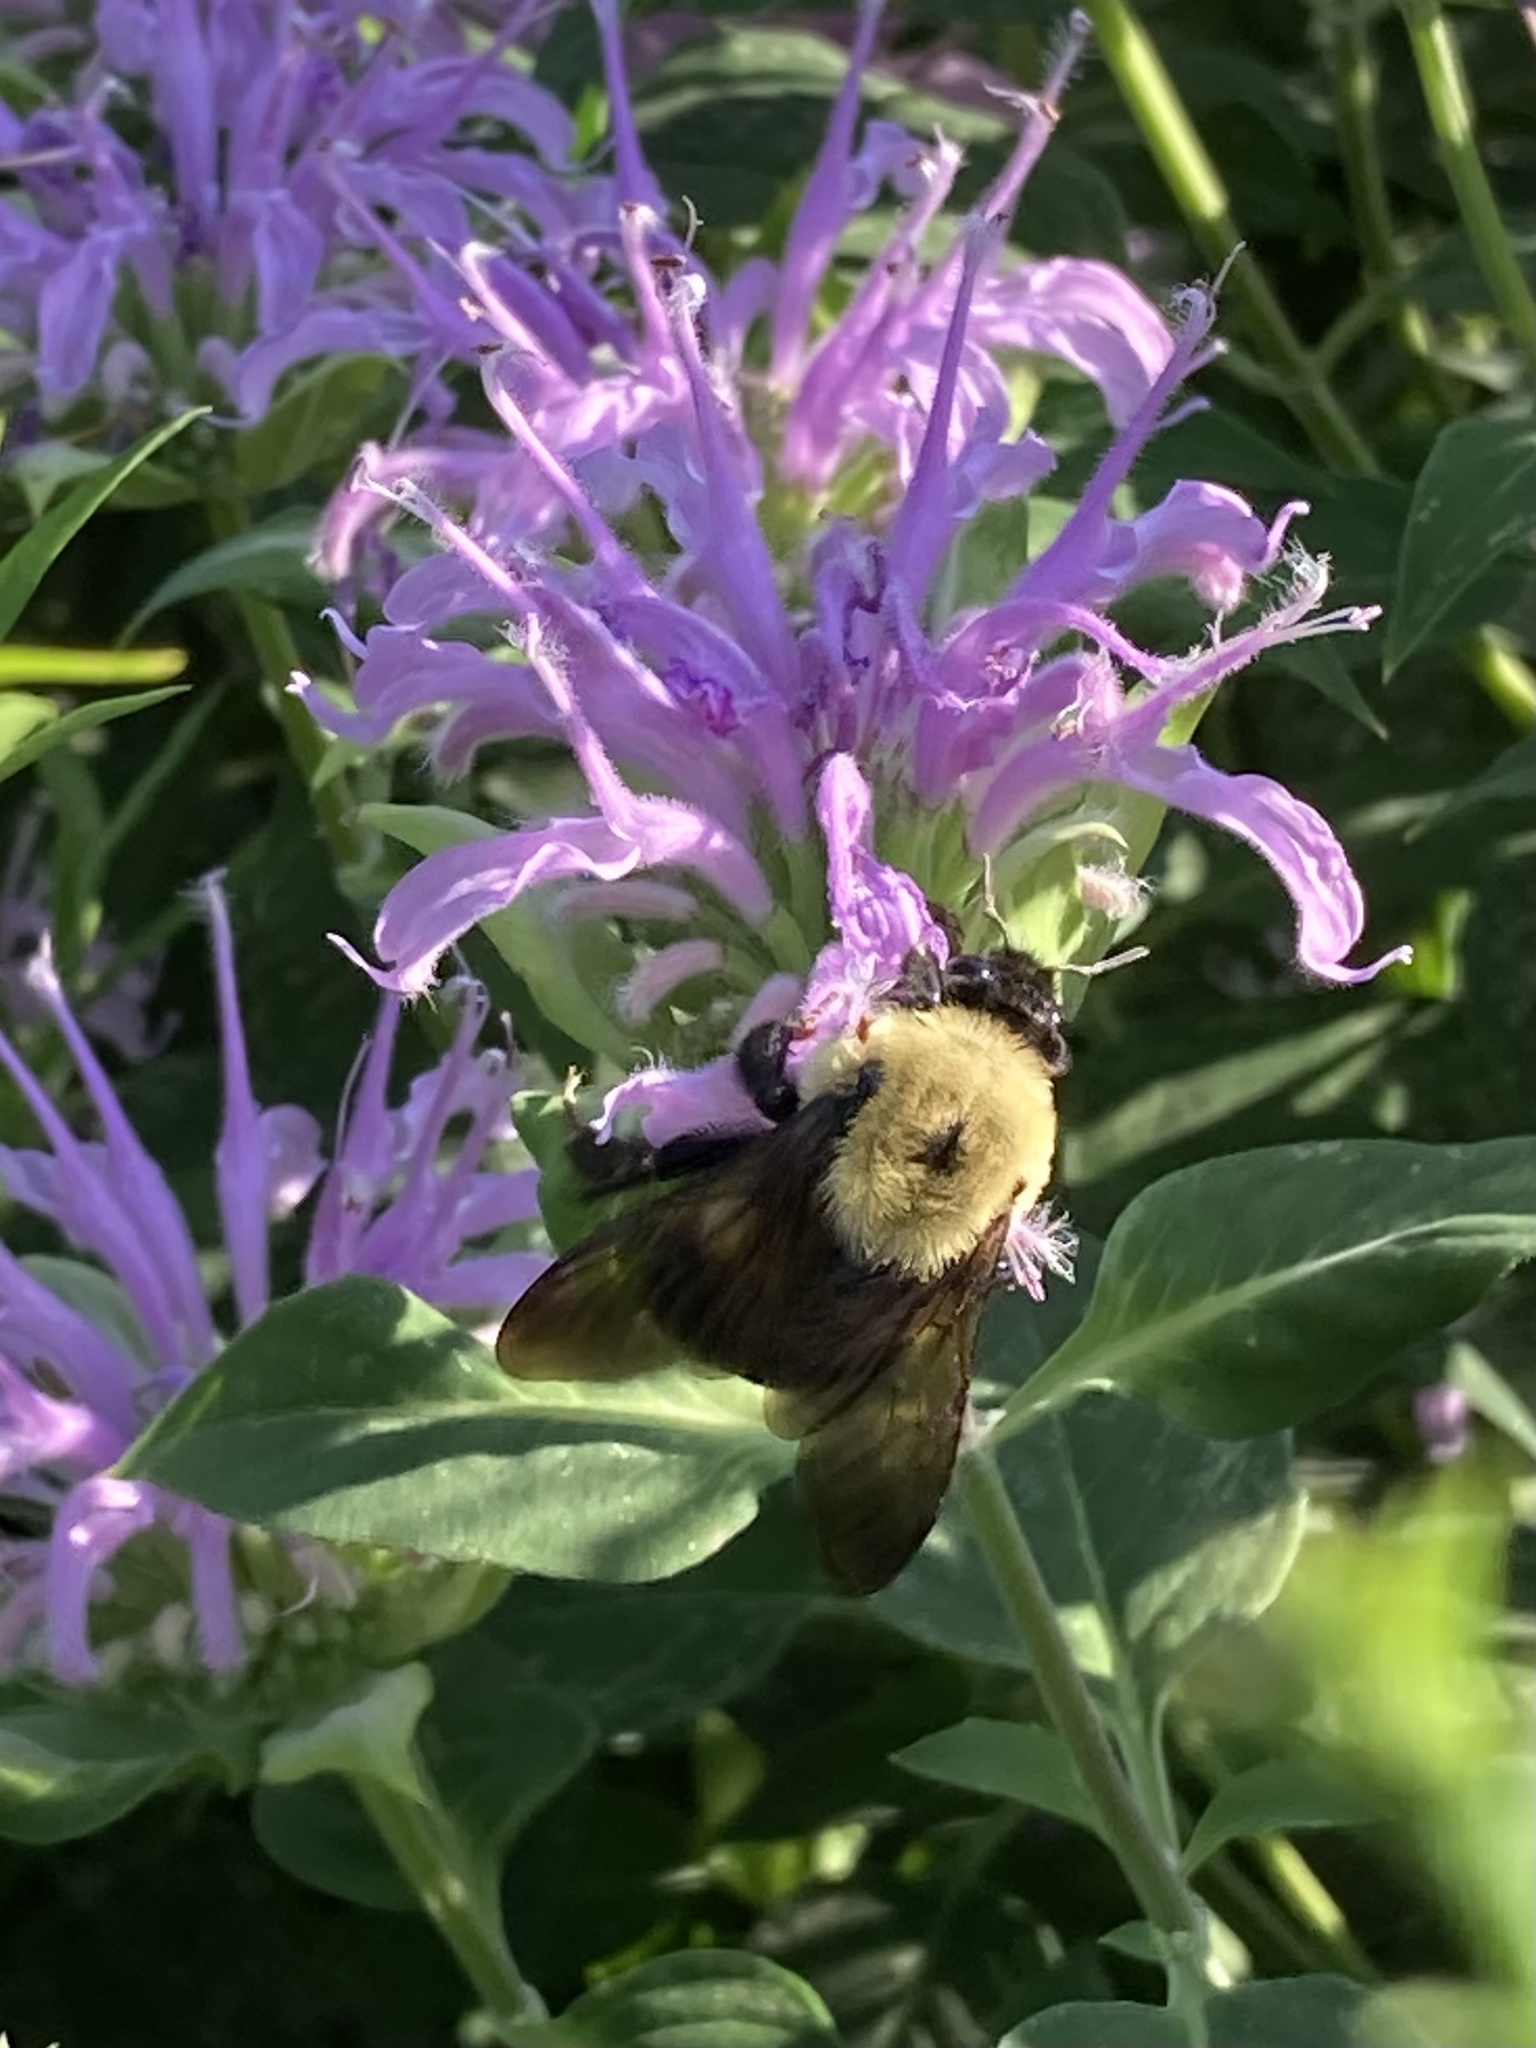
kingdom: Animalia
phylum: Arthropoda
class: Insecta
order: Hymenoptera
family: Apidae
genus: Bombus
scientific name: Bombus griseocollis
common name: Brown-belted bumble bee
